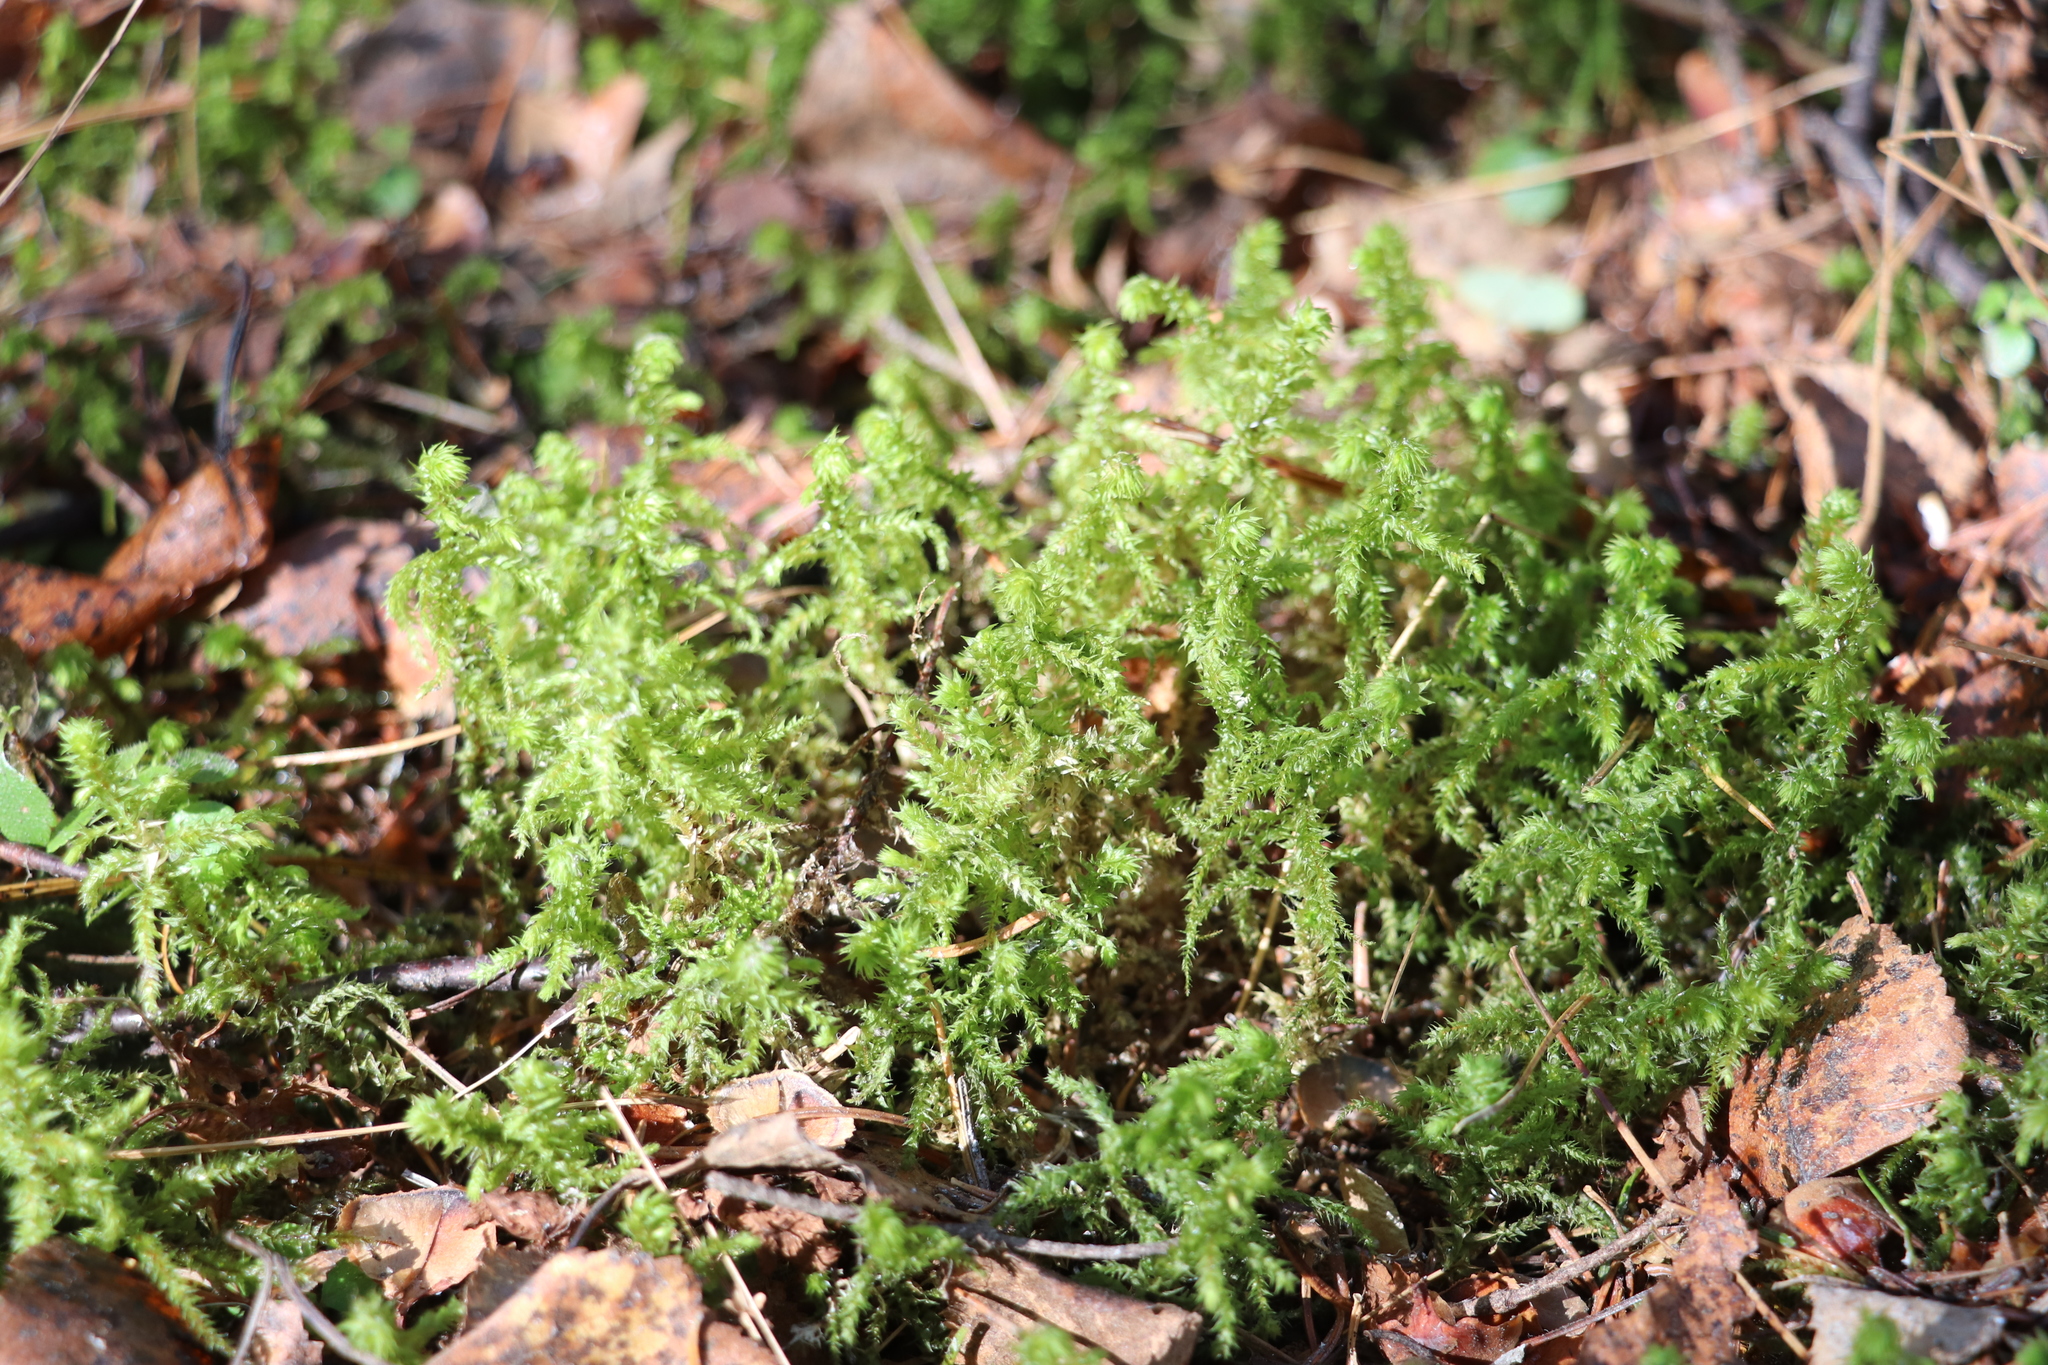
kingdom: Plantae
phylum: Bryophyta
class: Bryopsida
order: Hypnales
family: Hylocomiaceae
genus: Hylocomiadelphus
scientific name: Hylocomiadelphus triquetrus
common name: Rough goose neck moss
